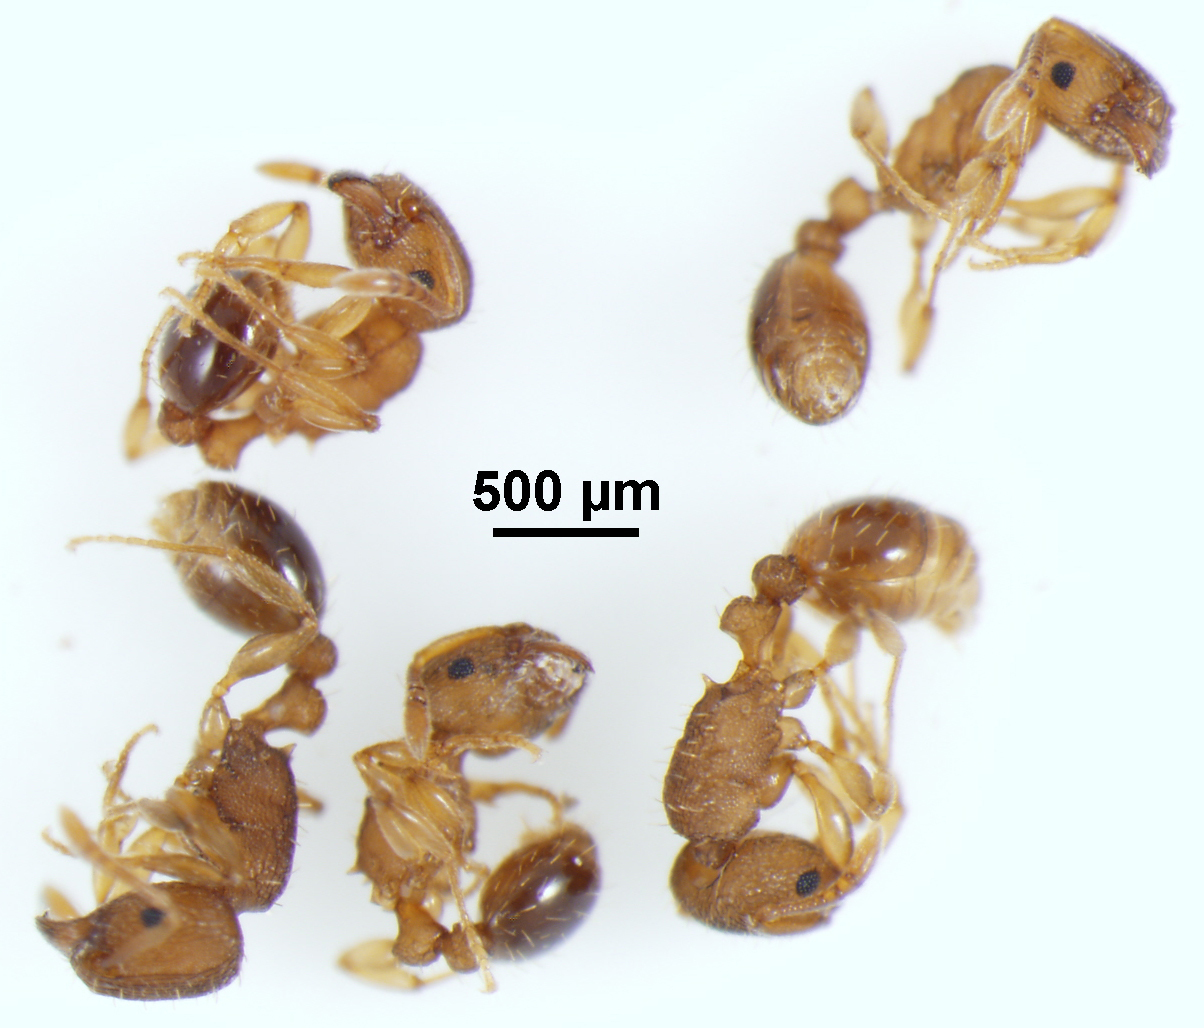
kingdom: Animalia
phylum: Arthropoda
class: Insecta
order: Hymenoptera
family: Formicidae
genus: Tetramorium
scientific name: Tetramorium simillimum
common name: Ant
